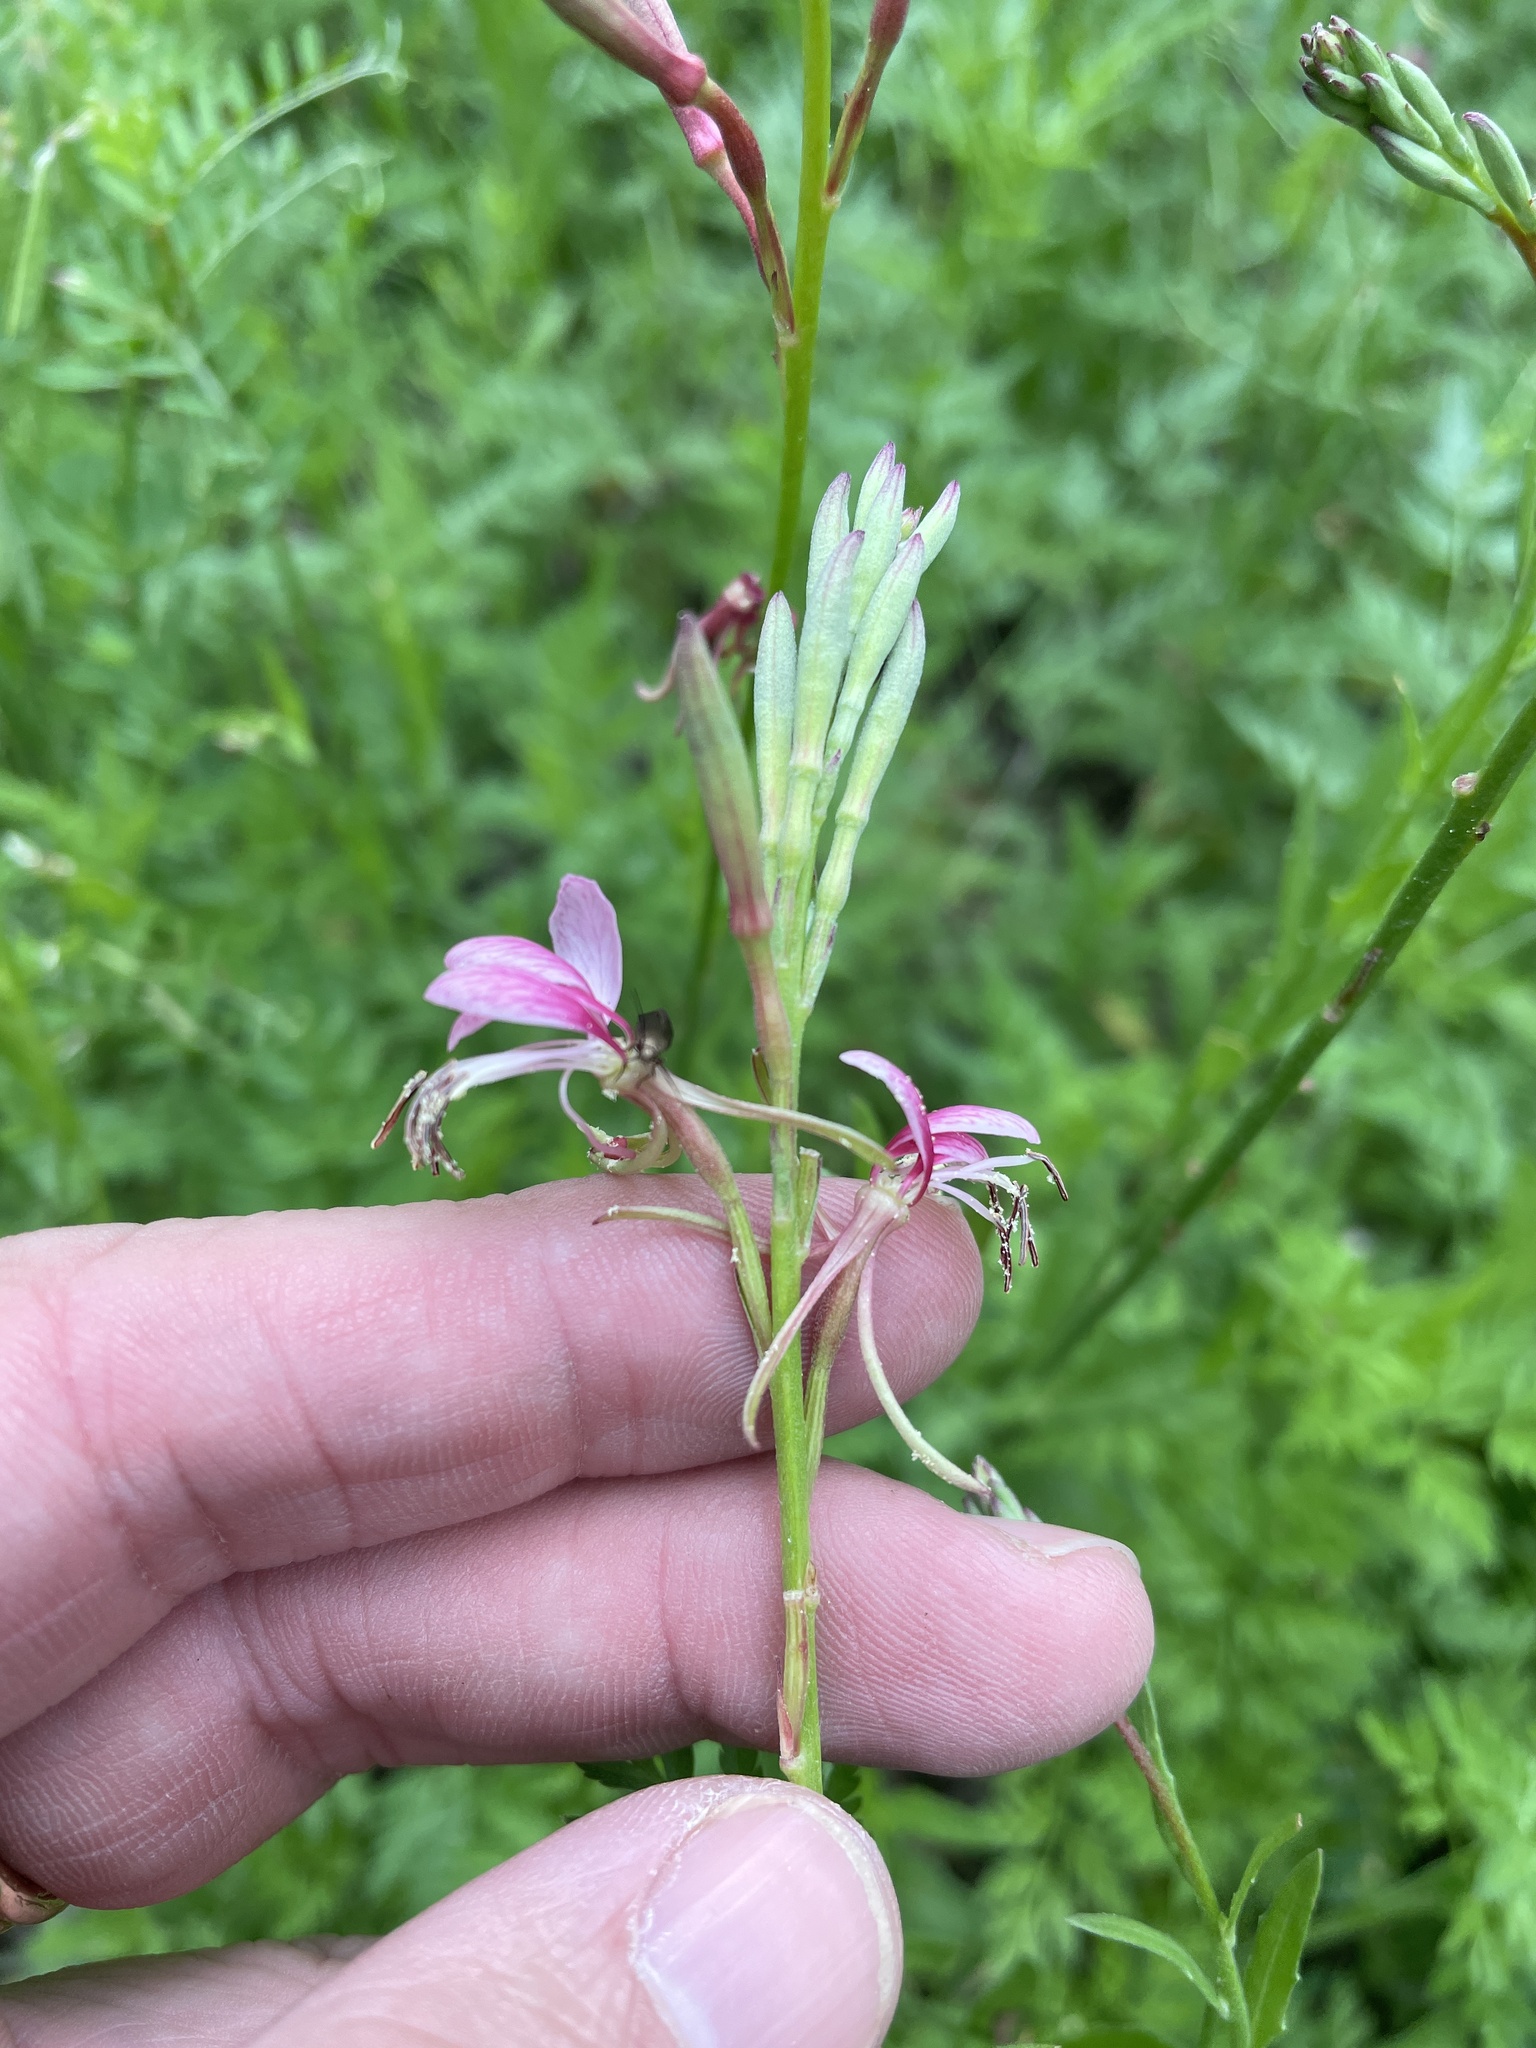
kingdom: Plantae
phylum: Tracheophyta
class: Magnoliopsida
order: Myrtales
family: Onagraceae
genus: Oenothera
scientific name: Oenothera suffulta
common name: Kisses
